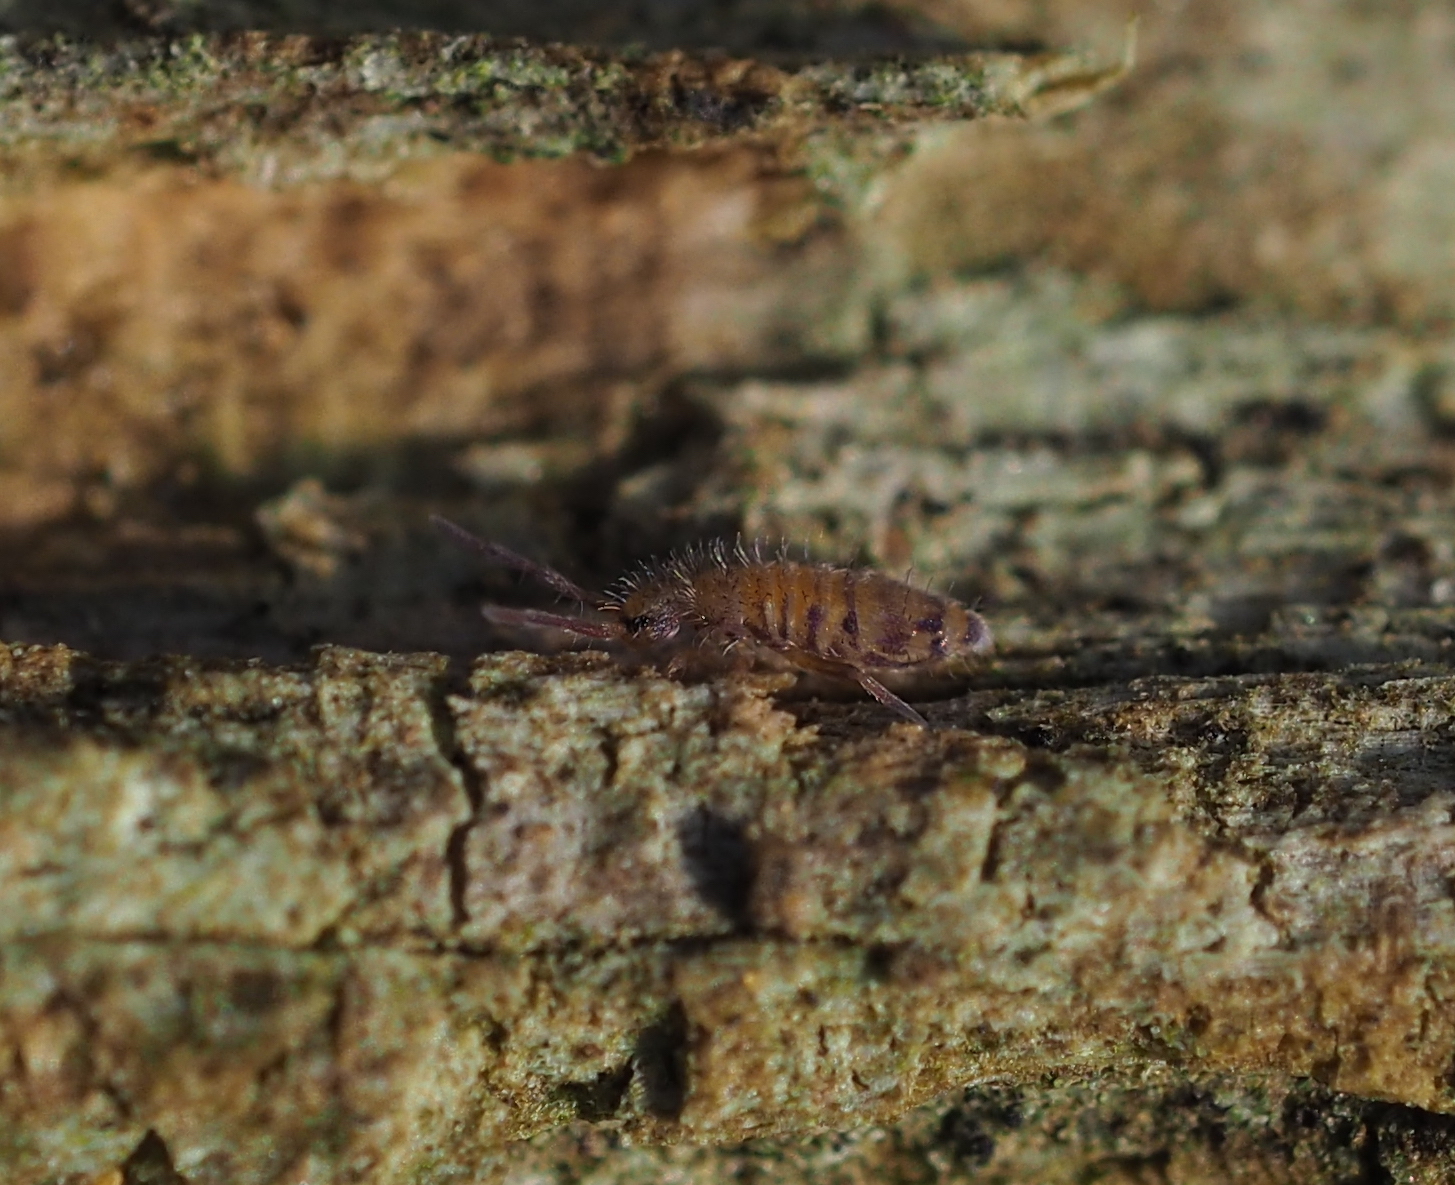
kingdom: Animalia
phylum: Arthropoda
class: Collembola
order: Entomobryomorpha
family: Entomobryidae
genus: Entomobrya
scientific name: Entomobrya multifasciata
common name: Springtail
